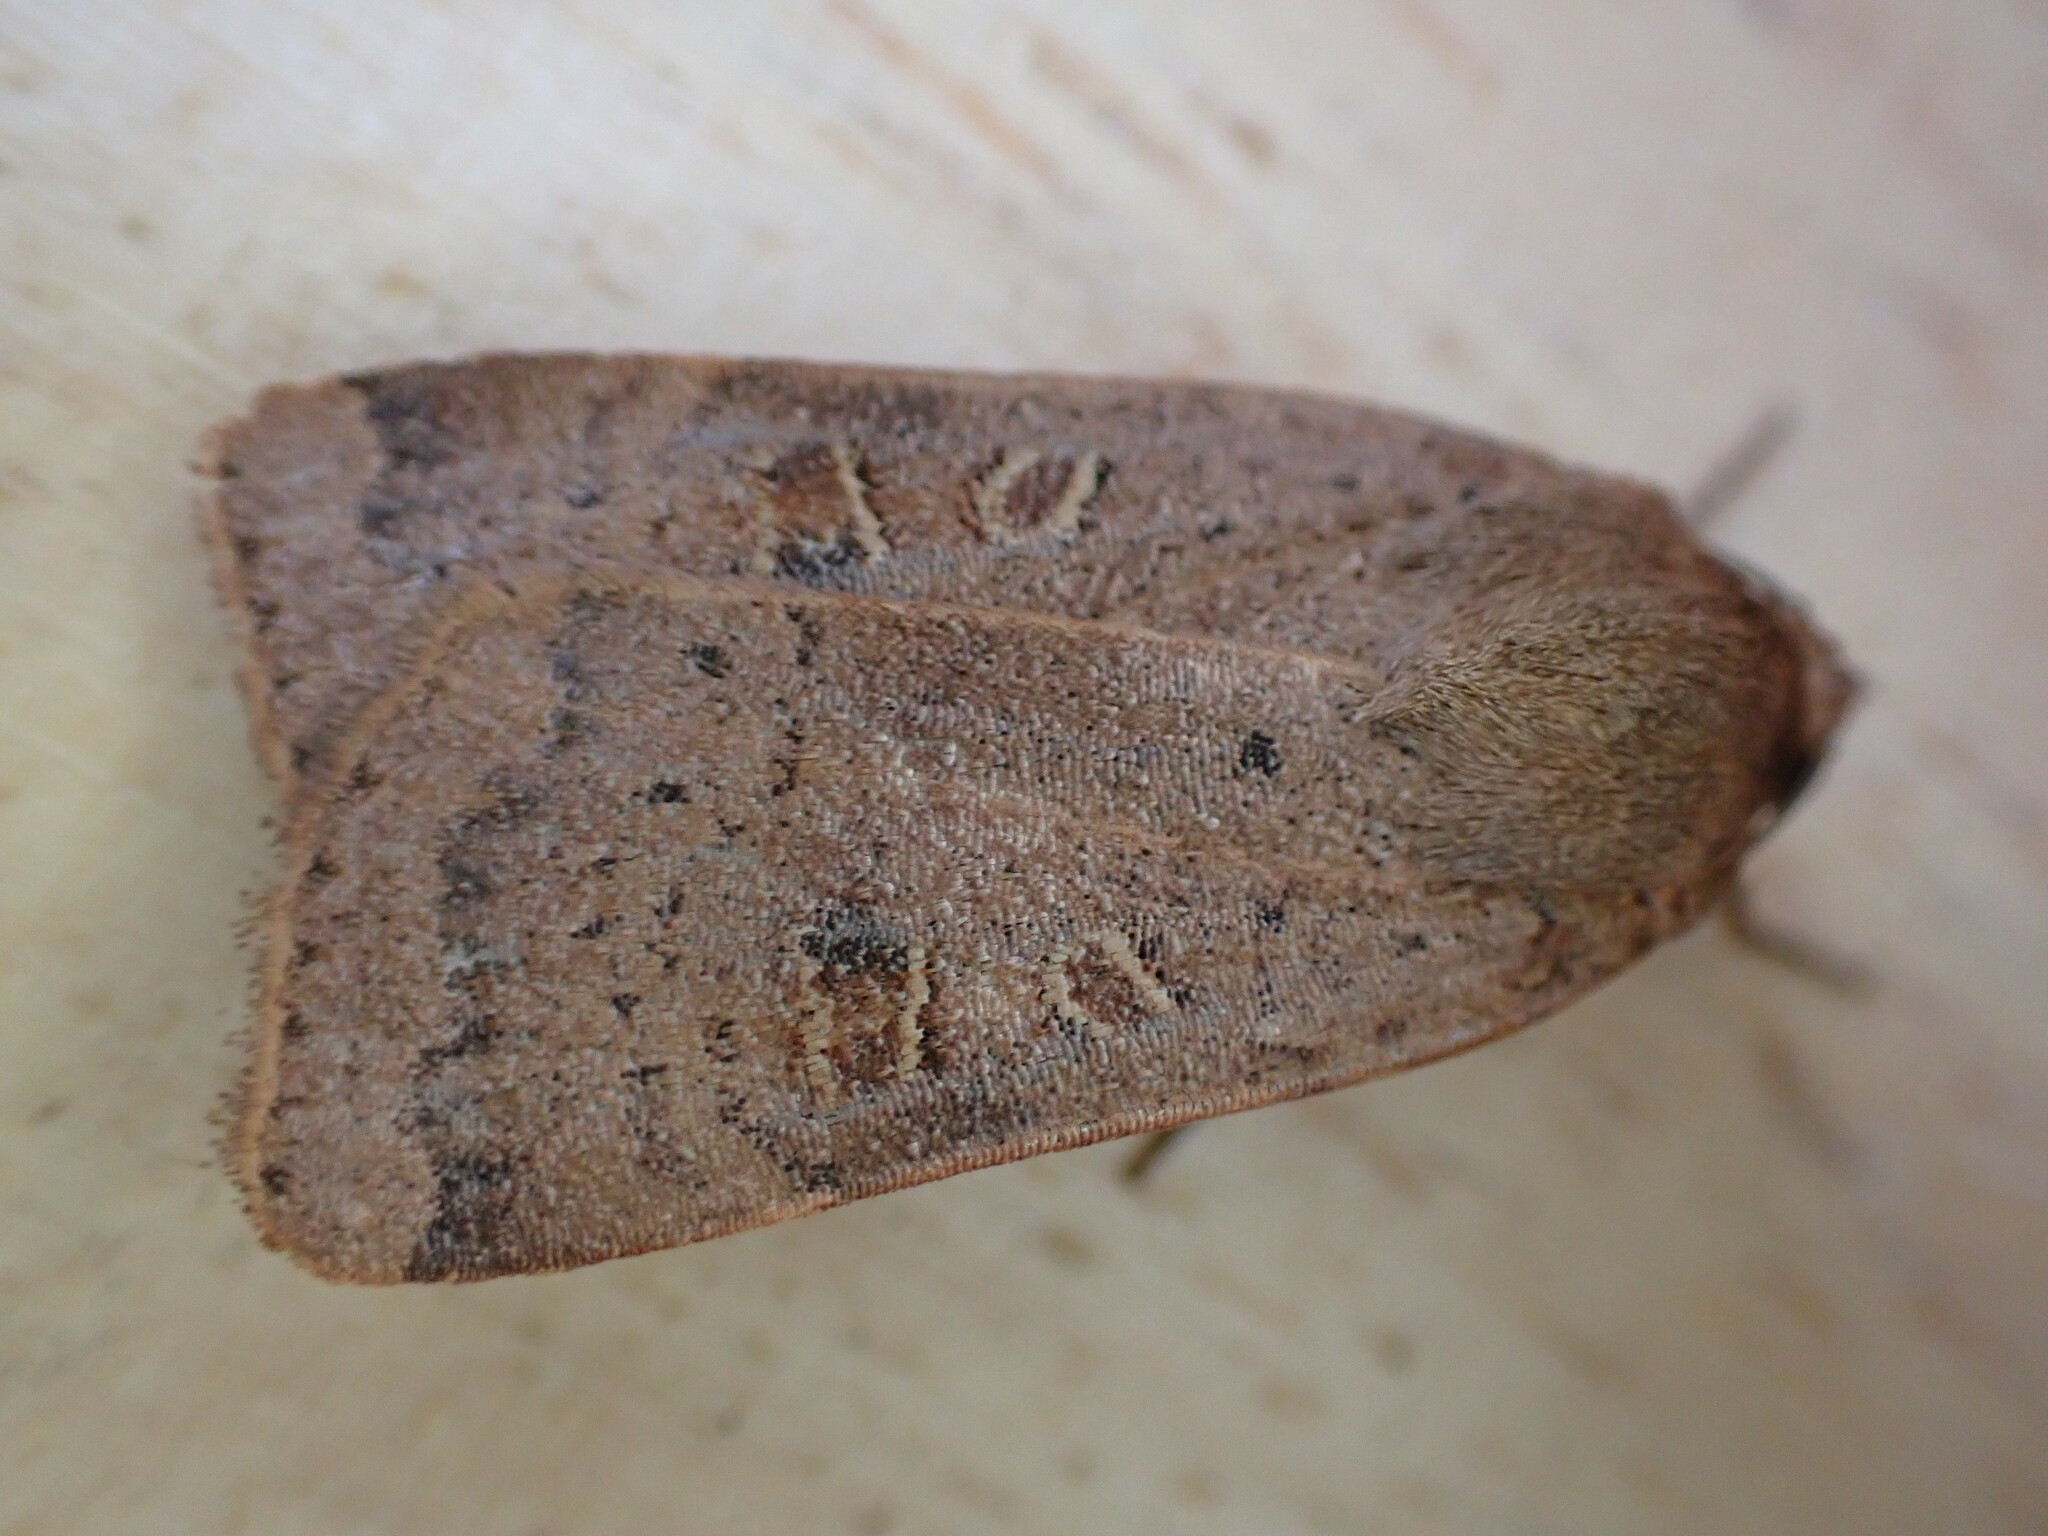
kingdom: Animalia
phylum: Arthropoda
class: Insecta
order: Lepidoptera
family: Noctuidae
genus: Noctua
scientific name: Noctua comes
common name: Lesser yellow underwing
